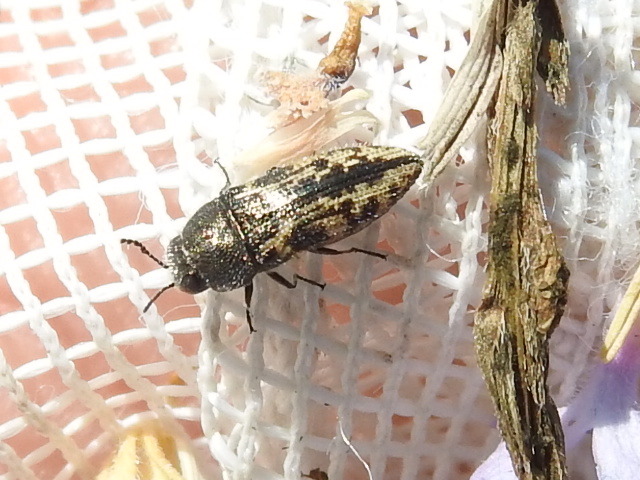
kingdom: Animalia
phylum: Arthropoda
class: Insecta
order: Coleoptera
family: Buprestidae
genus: Acmaeodera
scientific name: Acmaeodera neglecta
